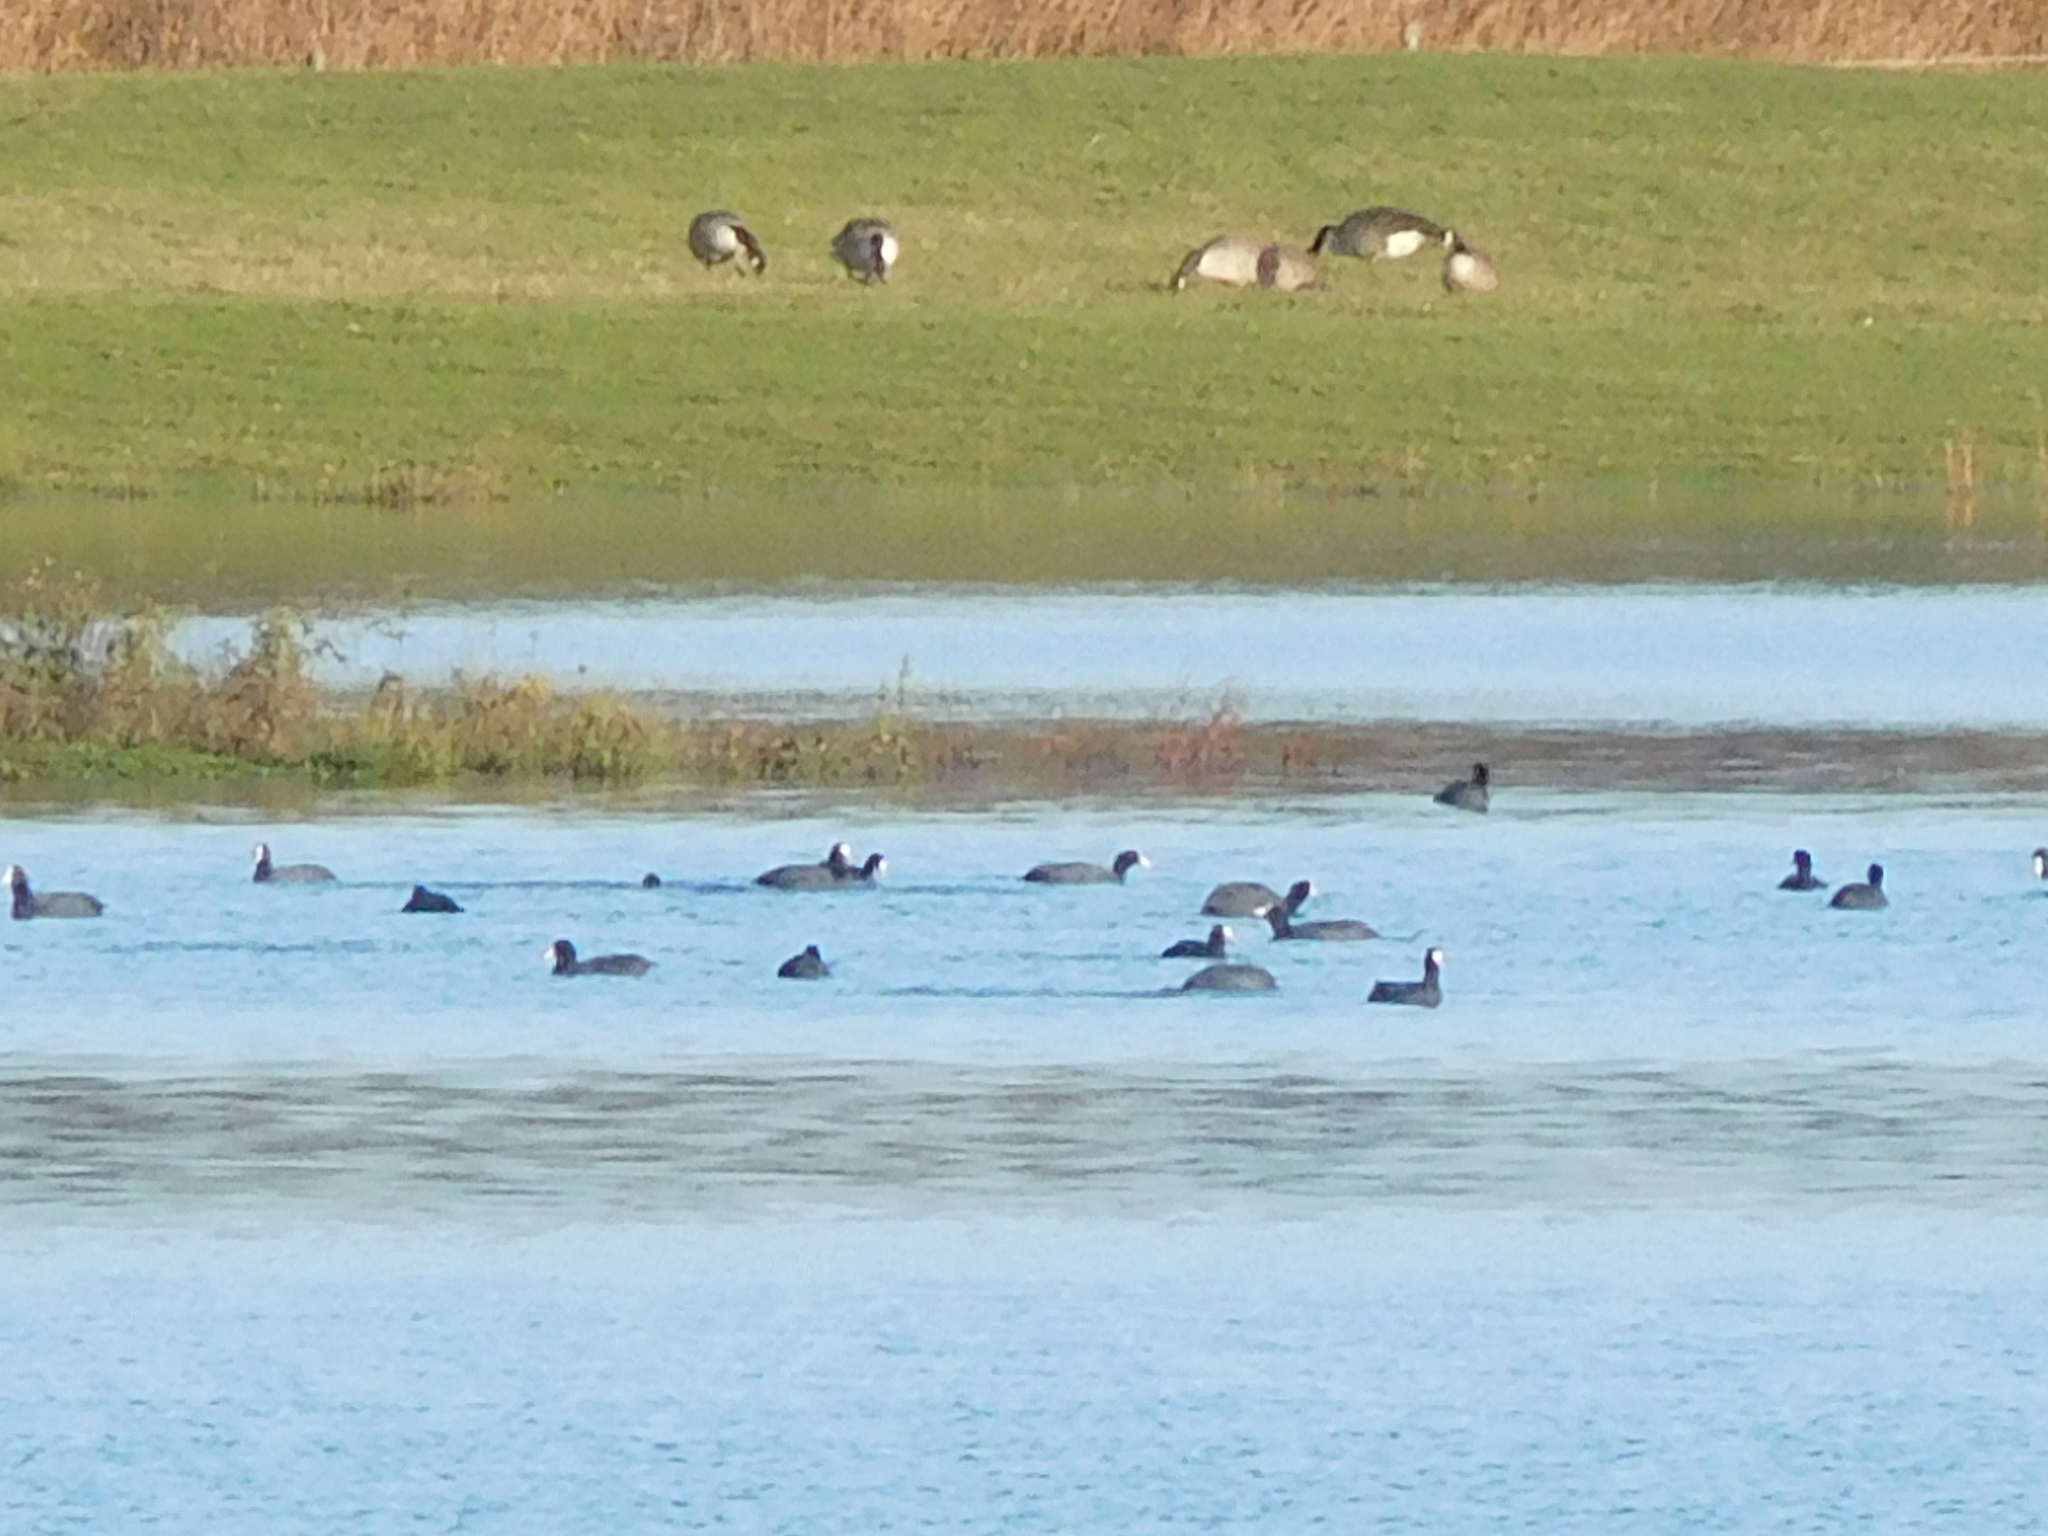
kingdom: Animalia
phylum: Chordata
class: Aves
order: Gruiformes
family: Rallidae
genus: Fulica
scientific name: Fulica atra
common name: Eurasian coot
